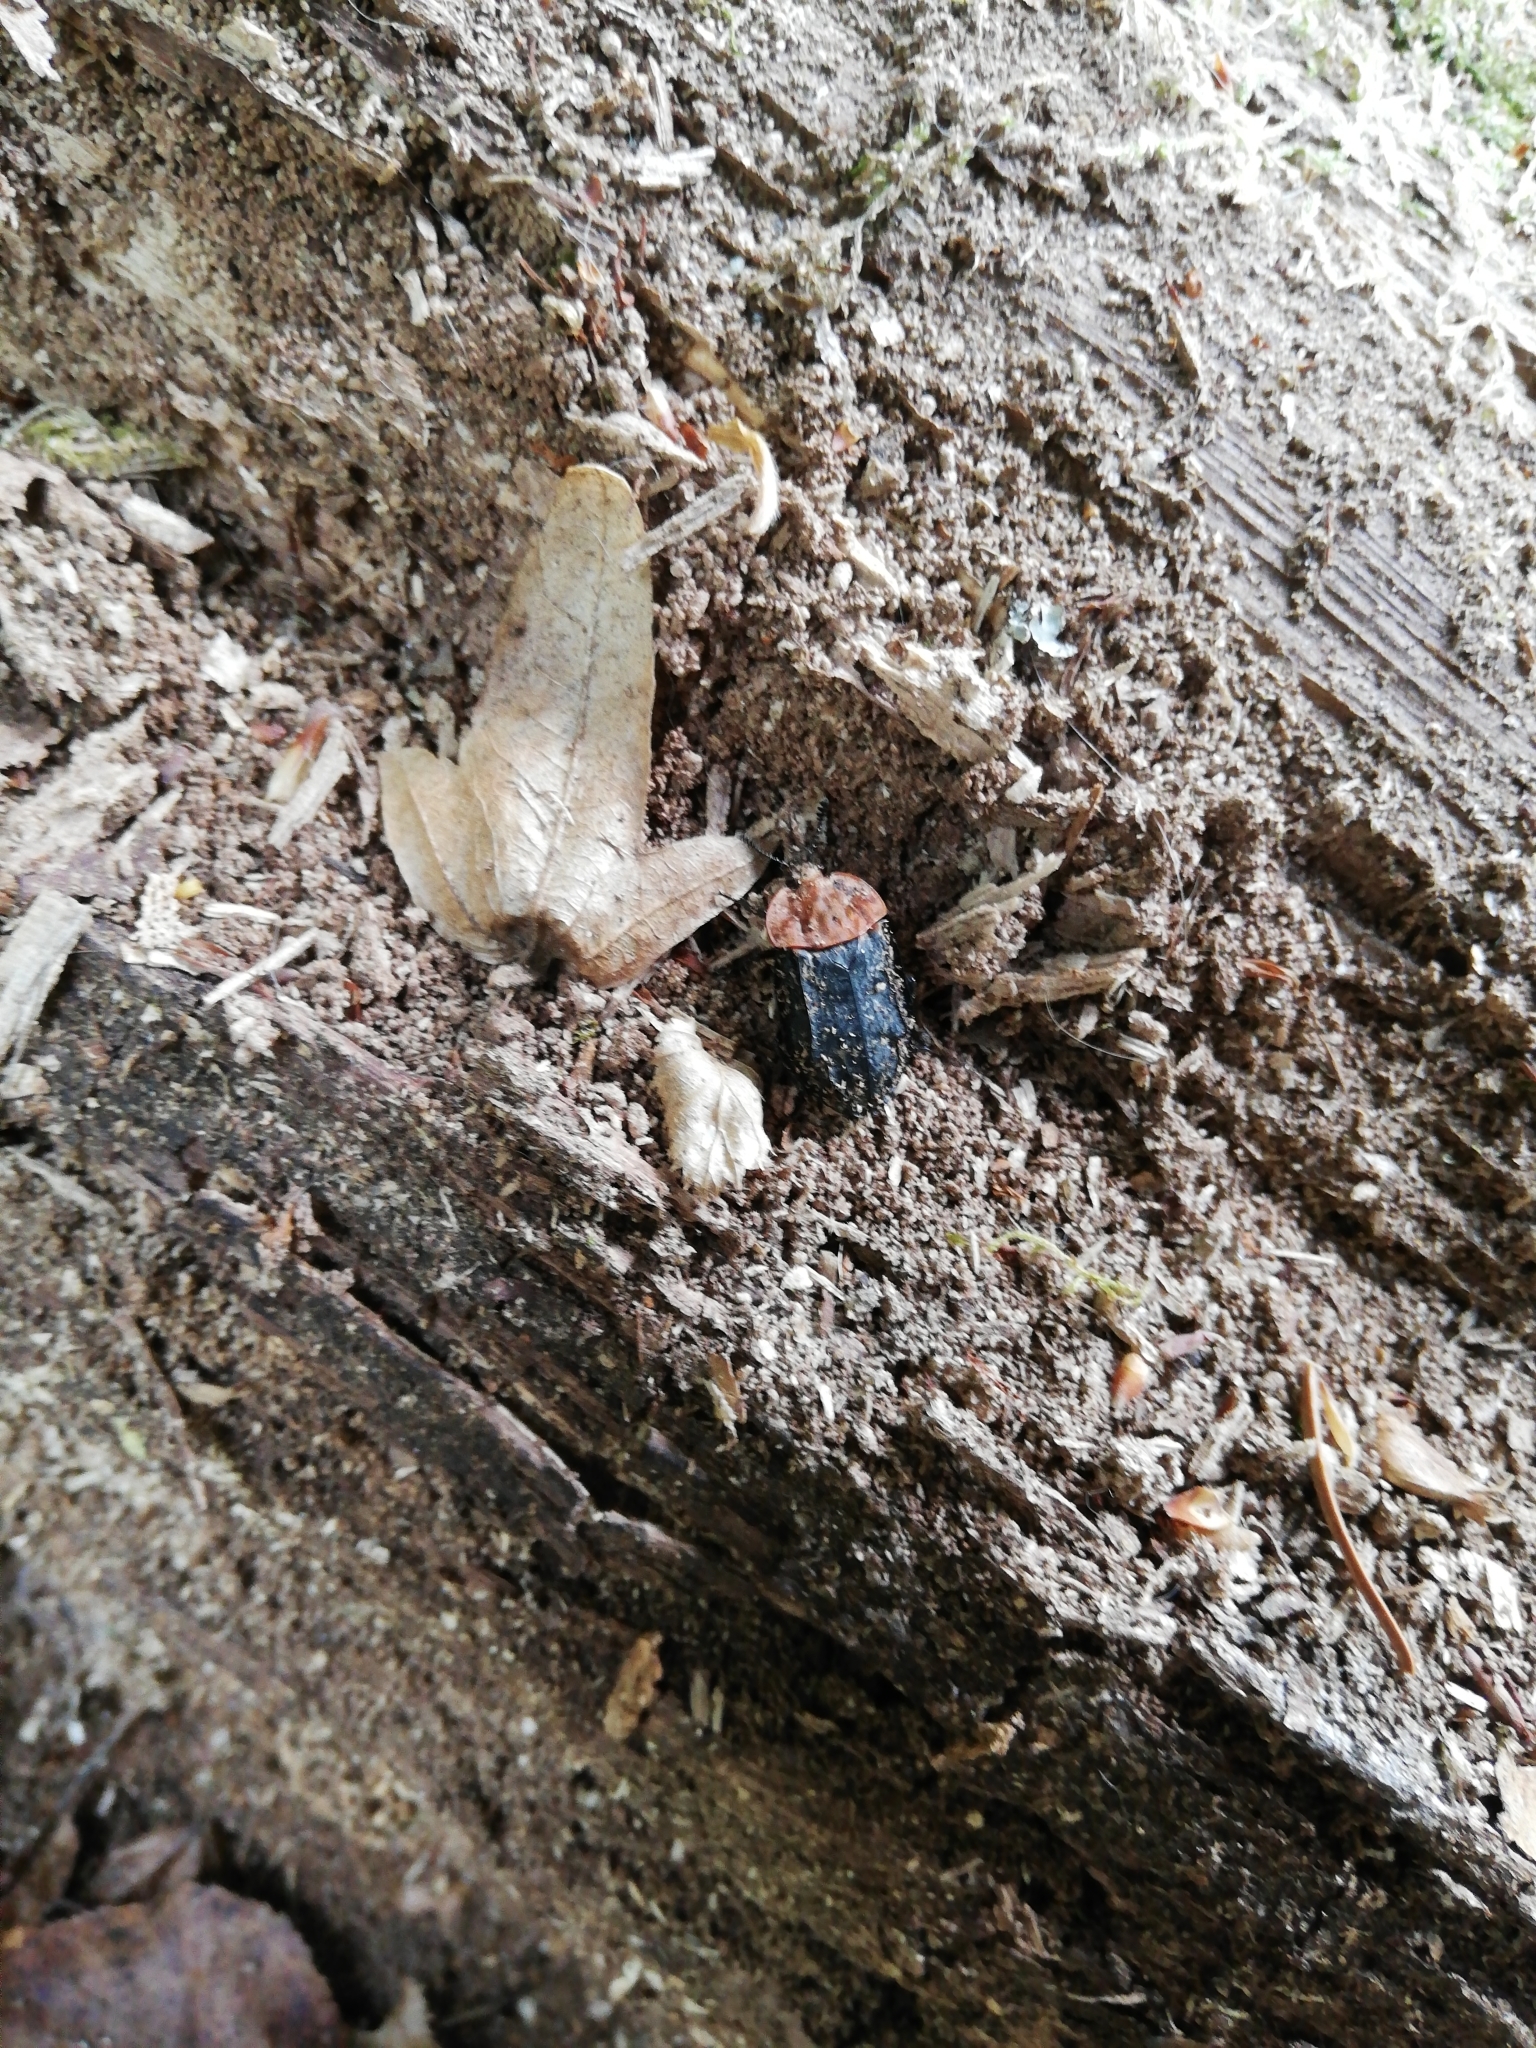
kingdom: Animalia
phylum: Arthropoda
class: Insecta
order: Coleoptera
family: Staphylinidae
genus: Oiceoptoma
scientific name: Oiceoptoma thoracicum
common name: Red-breasted carrion beetle
